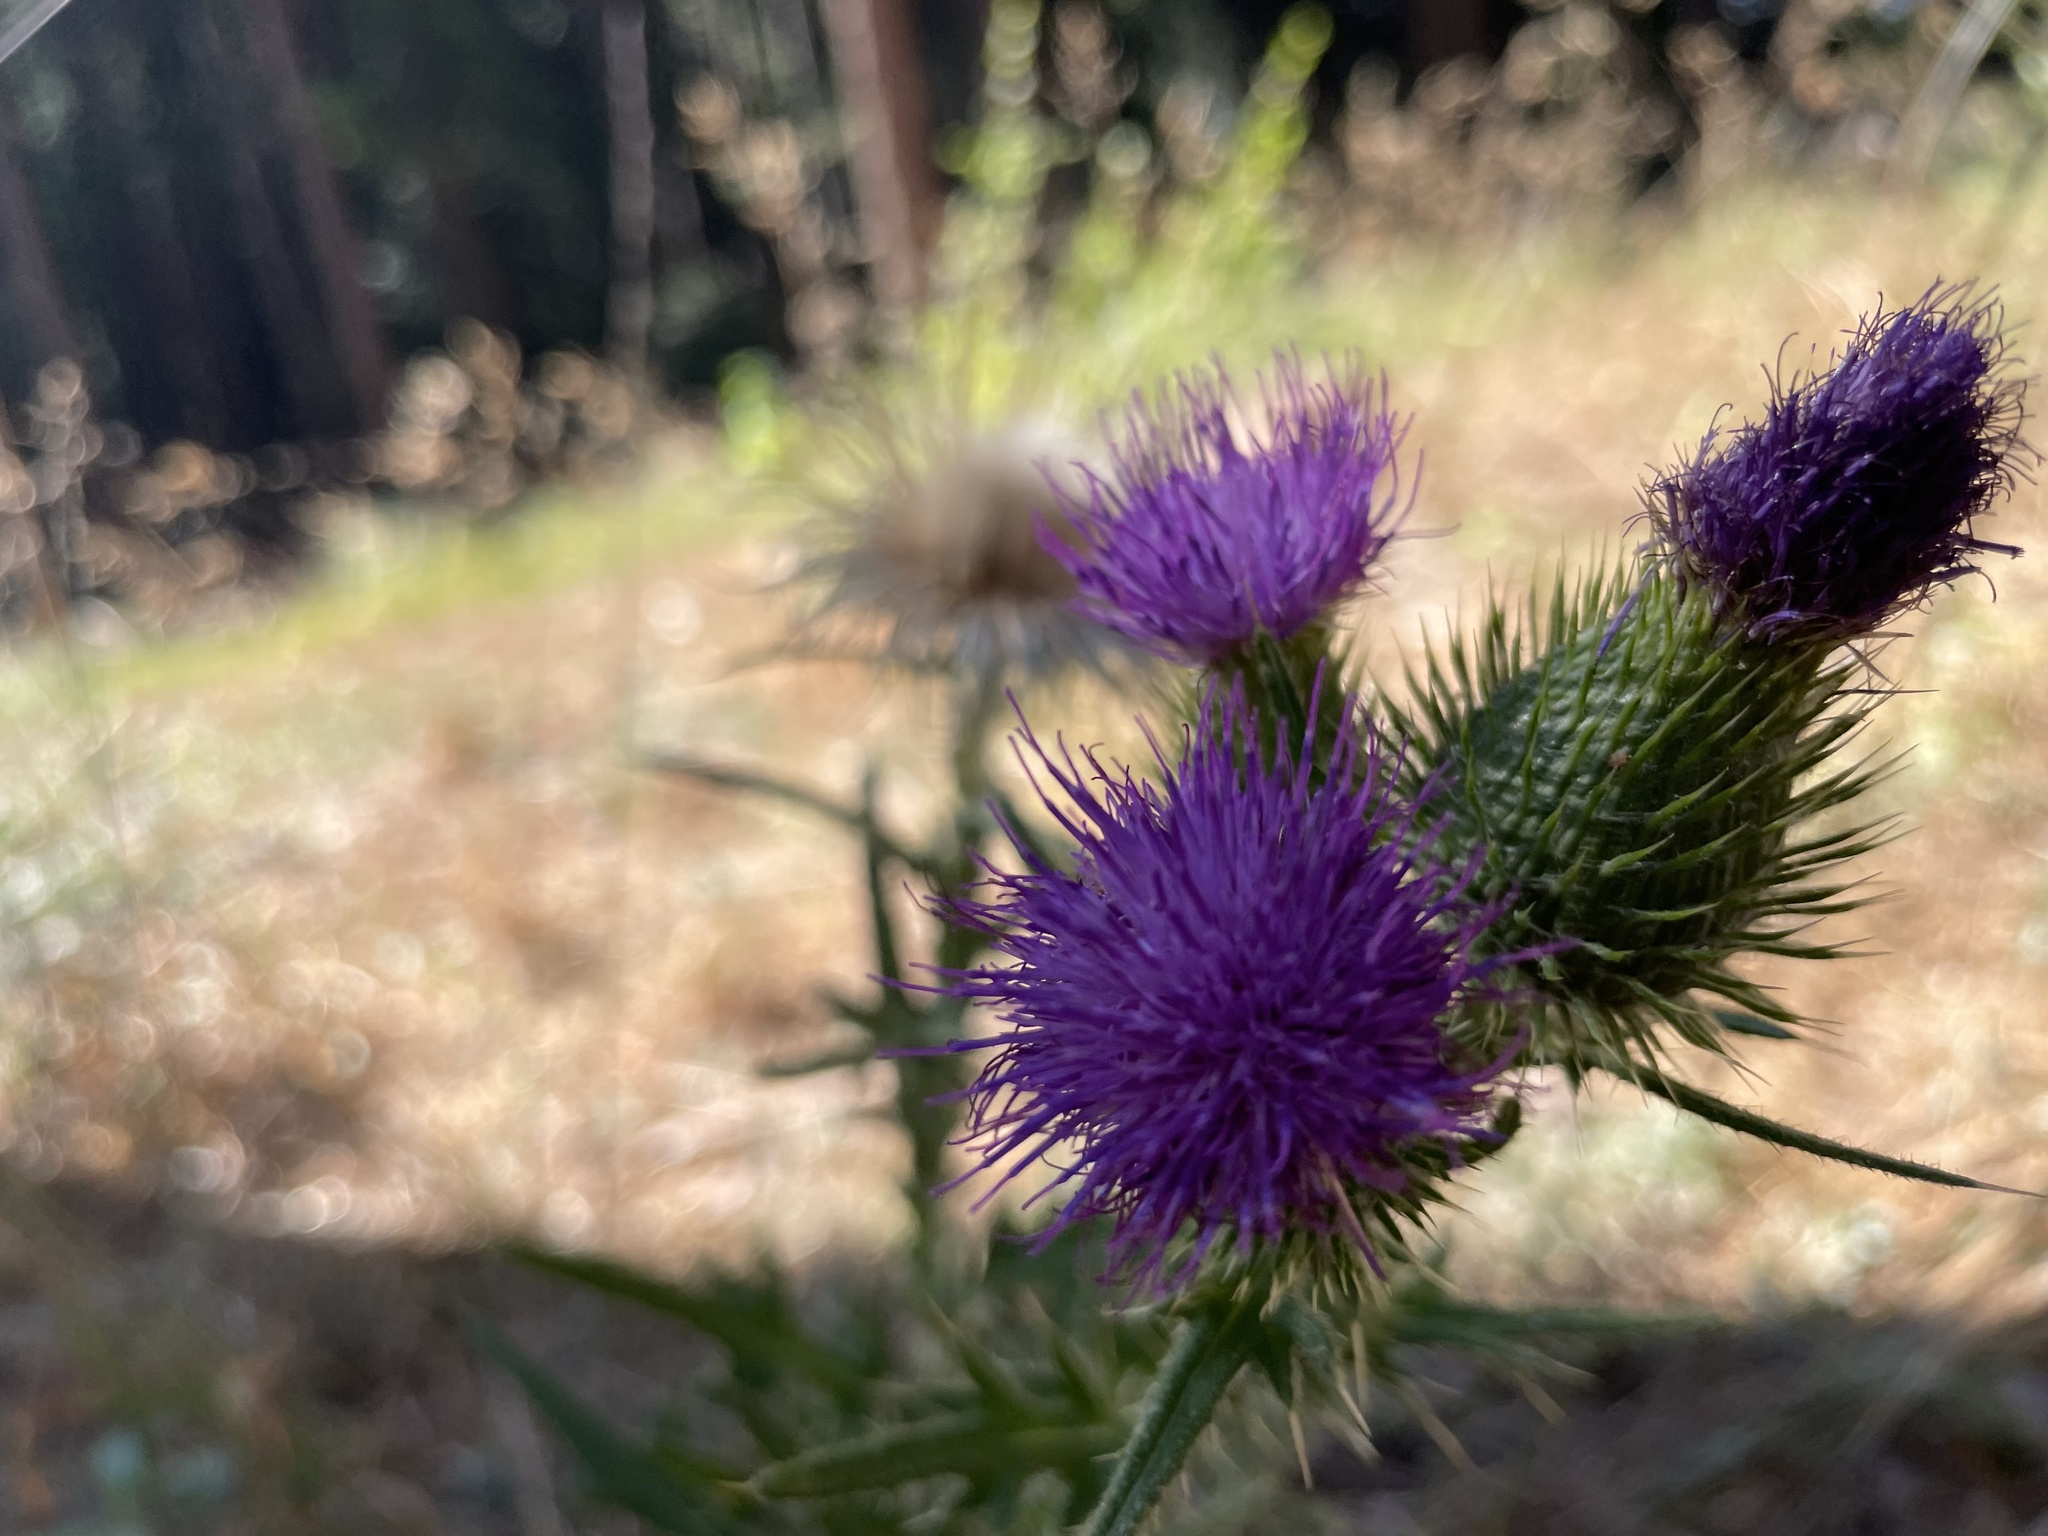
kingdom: Plantae
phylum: Tracheophyta
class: Magnoliopsida
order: Asterales
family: Asteraceae
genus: Cirsium
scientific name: Cirsium vulgare
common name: Bull thistle
